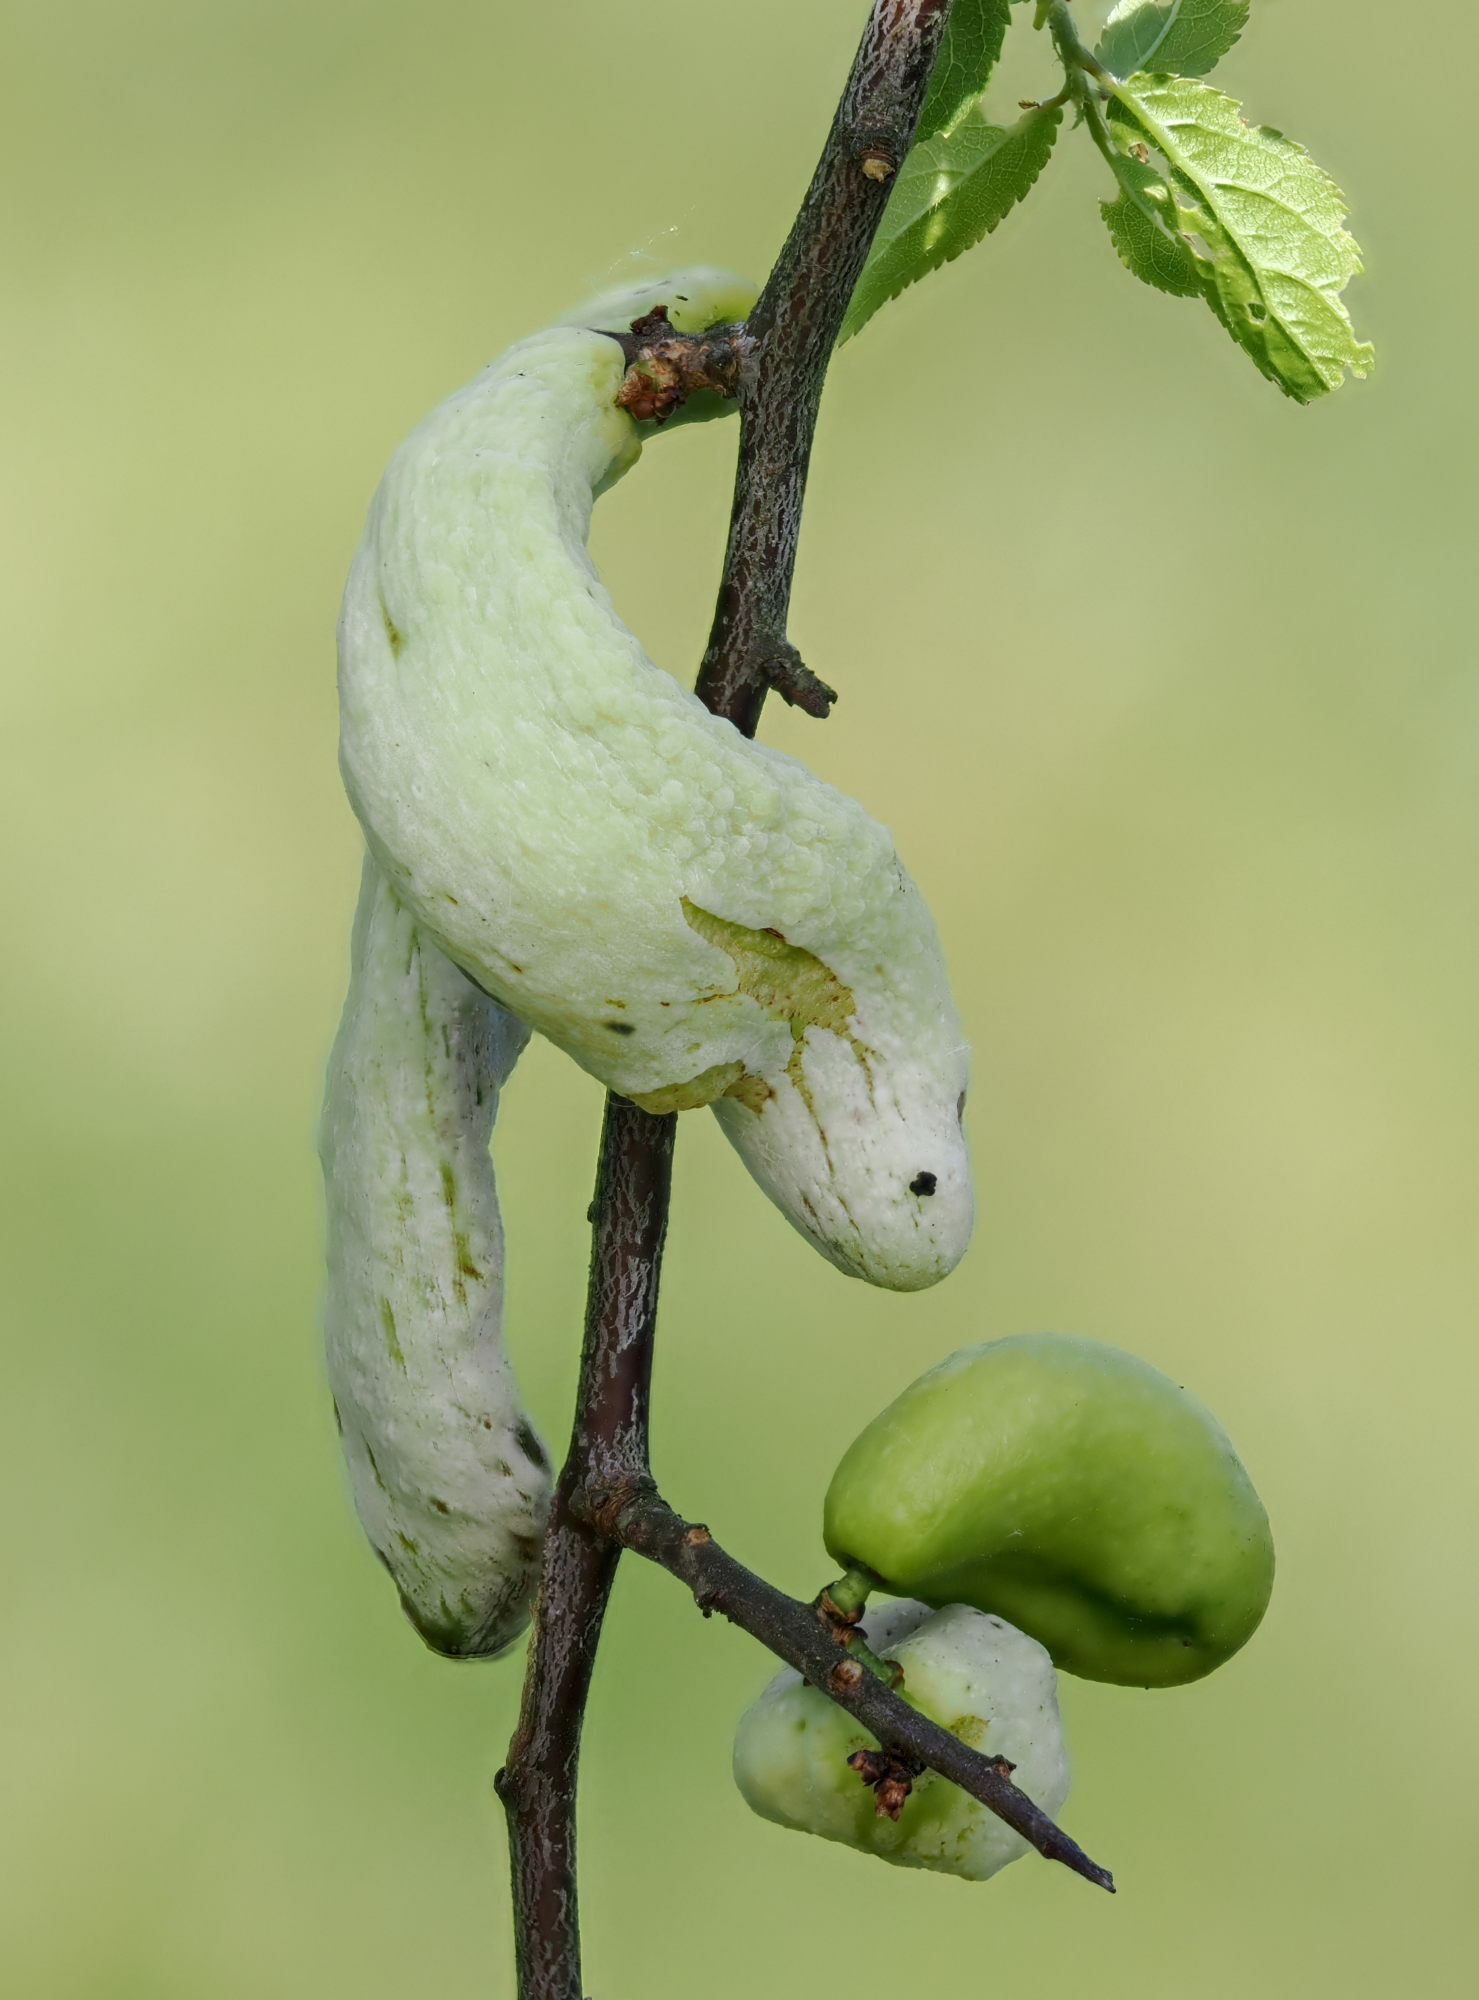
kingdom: Fungi
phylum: Ascomycota
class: Taphrinomycetes
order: Taphrinales
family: Taphrinaceae
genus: Taphrina
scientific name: Taphrina pruni
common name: Pocket plum
